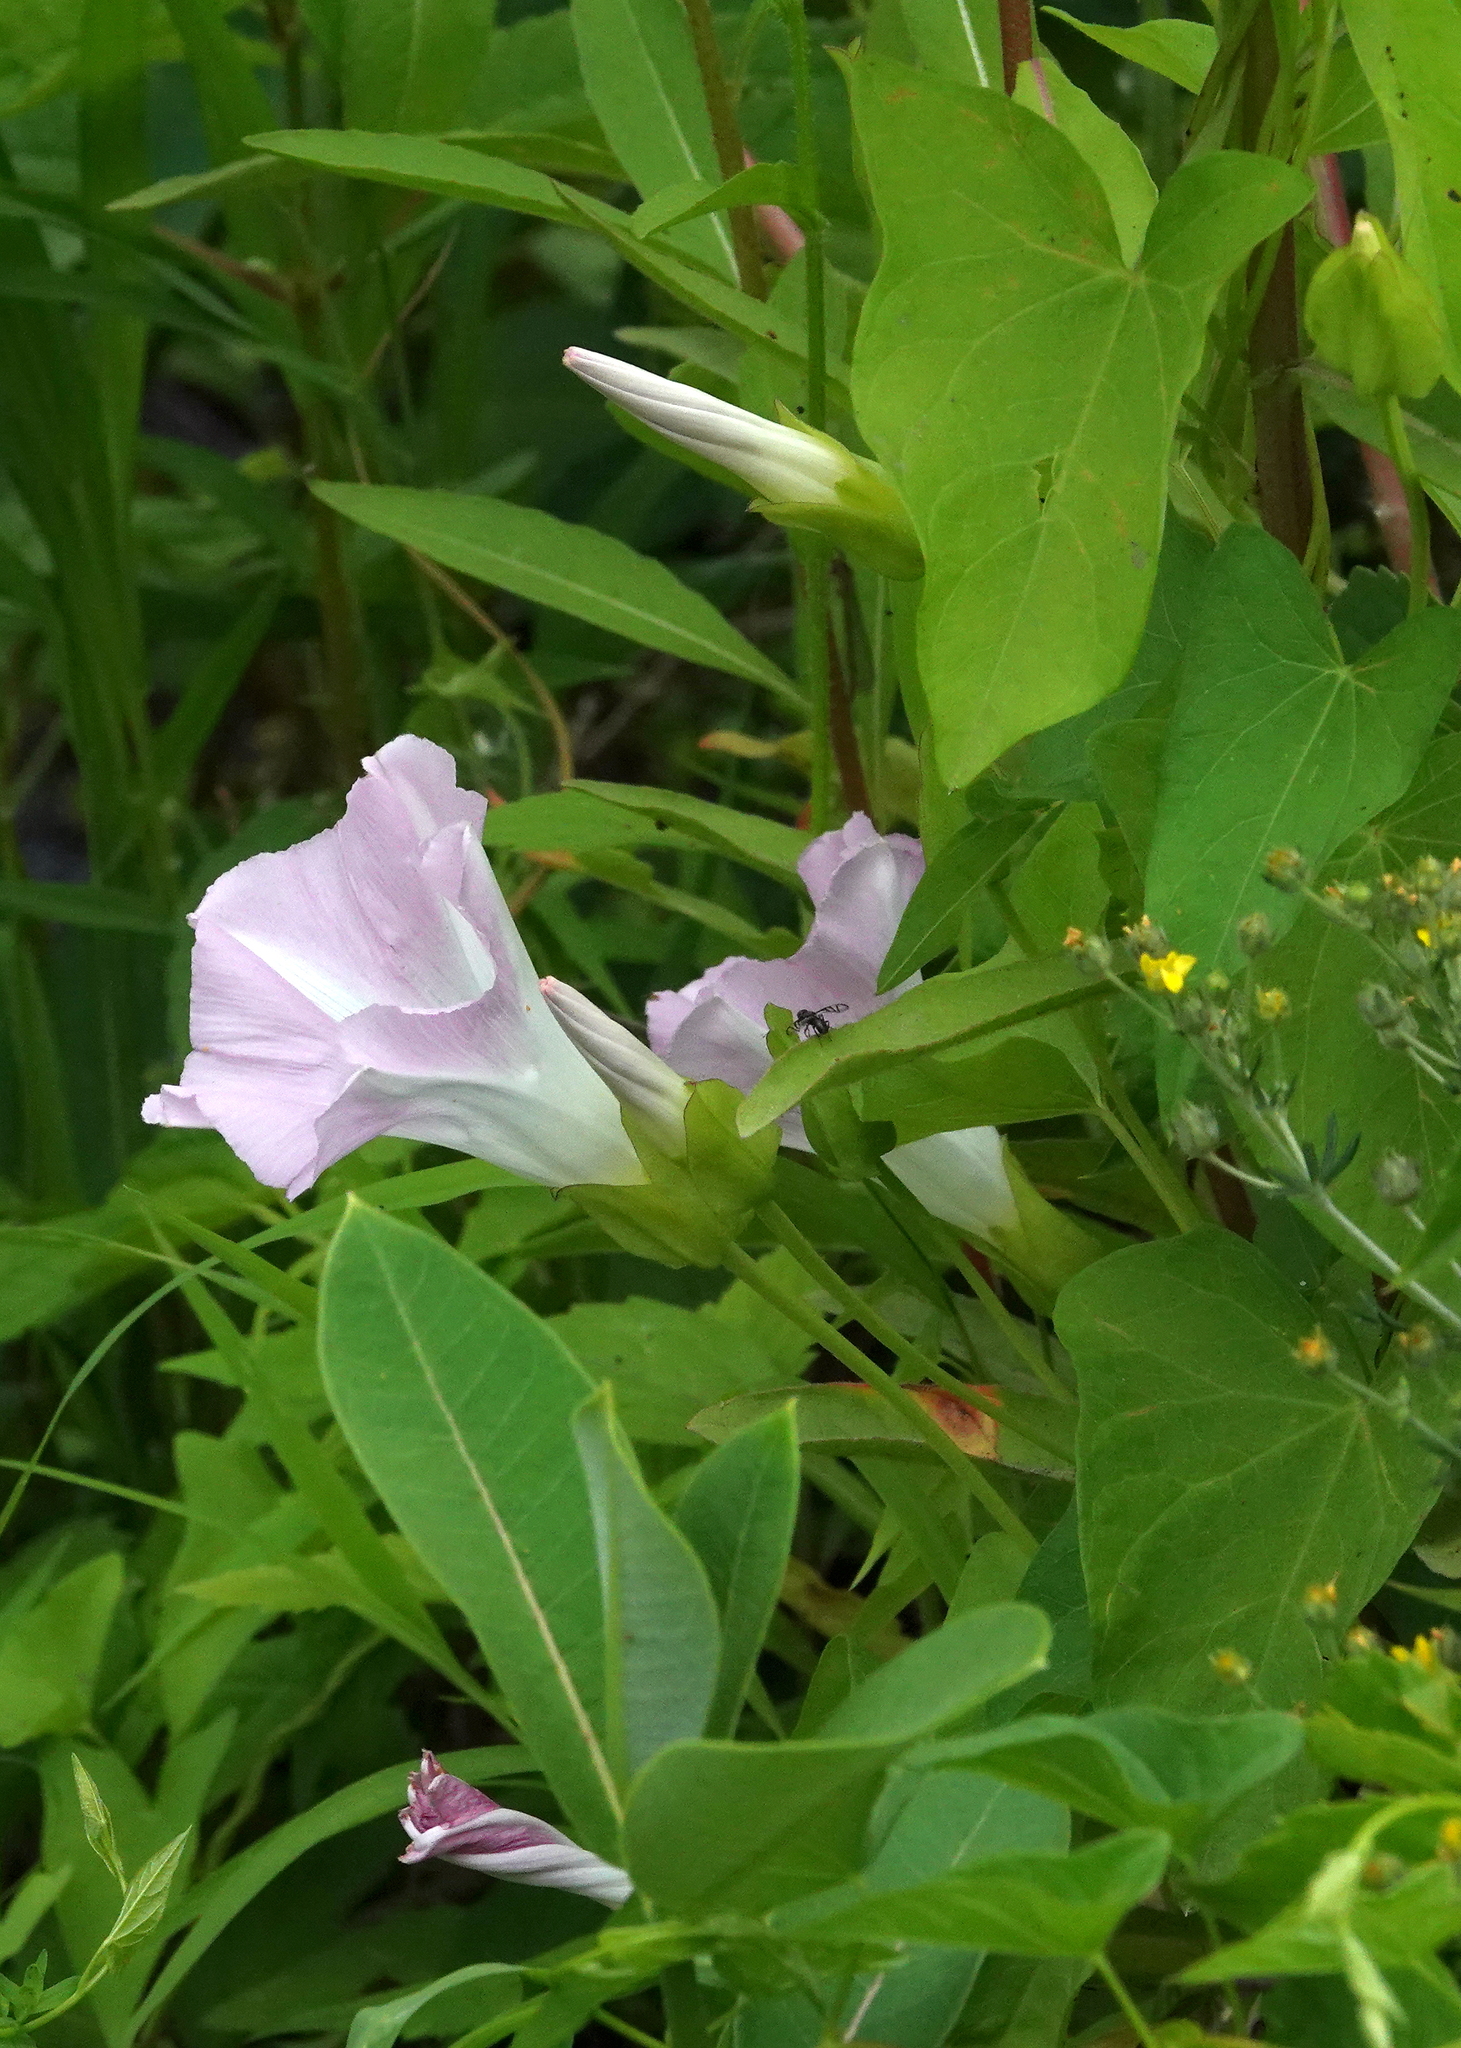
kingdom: Plantae
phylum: Tracheophyta
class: Magnoliopsida
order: Solanales
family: Convolvulaceae
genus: Calystegia
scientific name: Calystegia sepium
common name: Hedge bindweed
